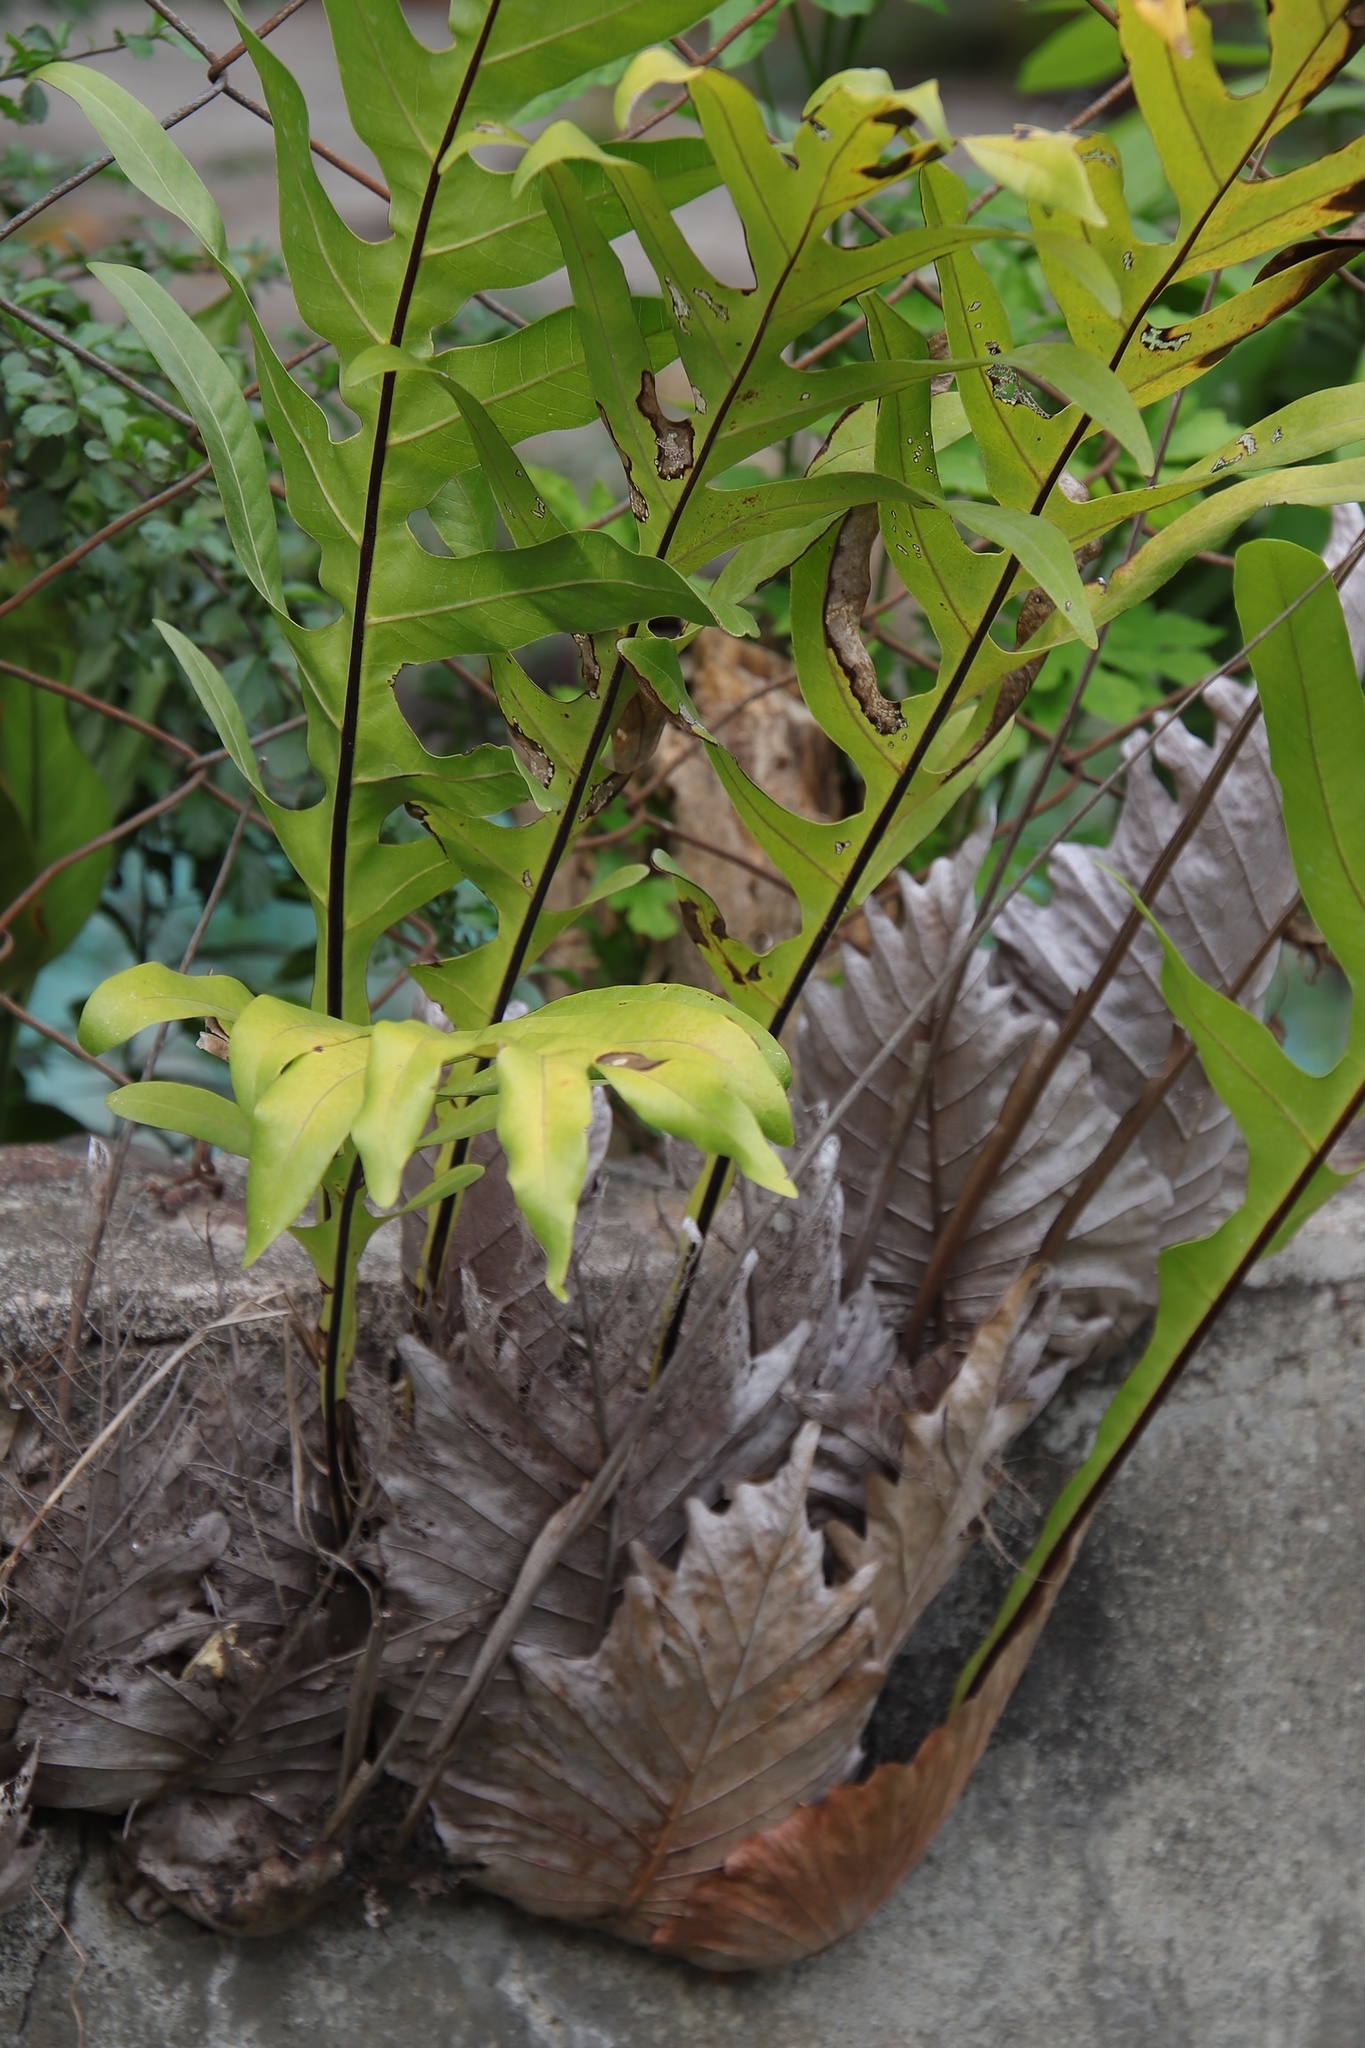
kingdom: Plantae
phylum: Tracheophyta
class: Polypodiopsida
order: Polypodiales
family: Polypodiaceae
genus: Drynaria
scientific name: Drynaria quercifolia
